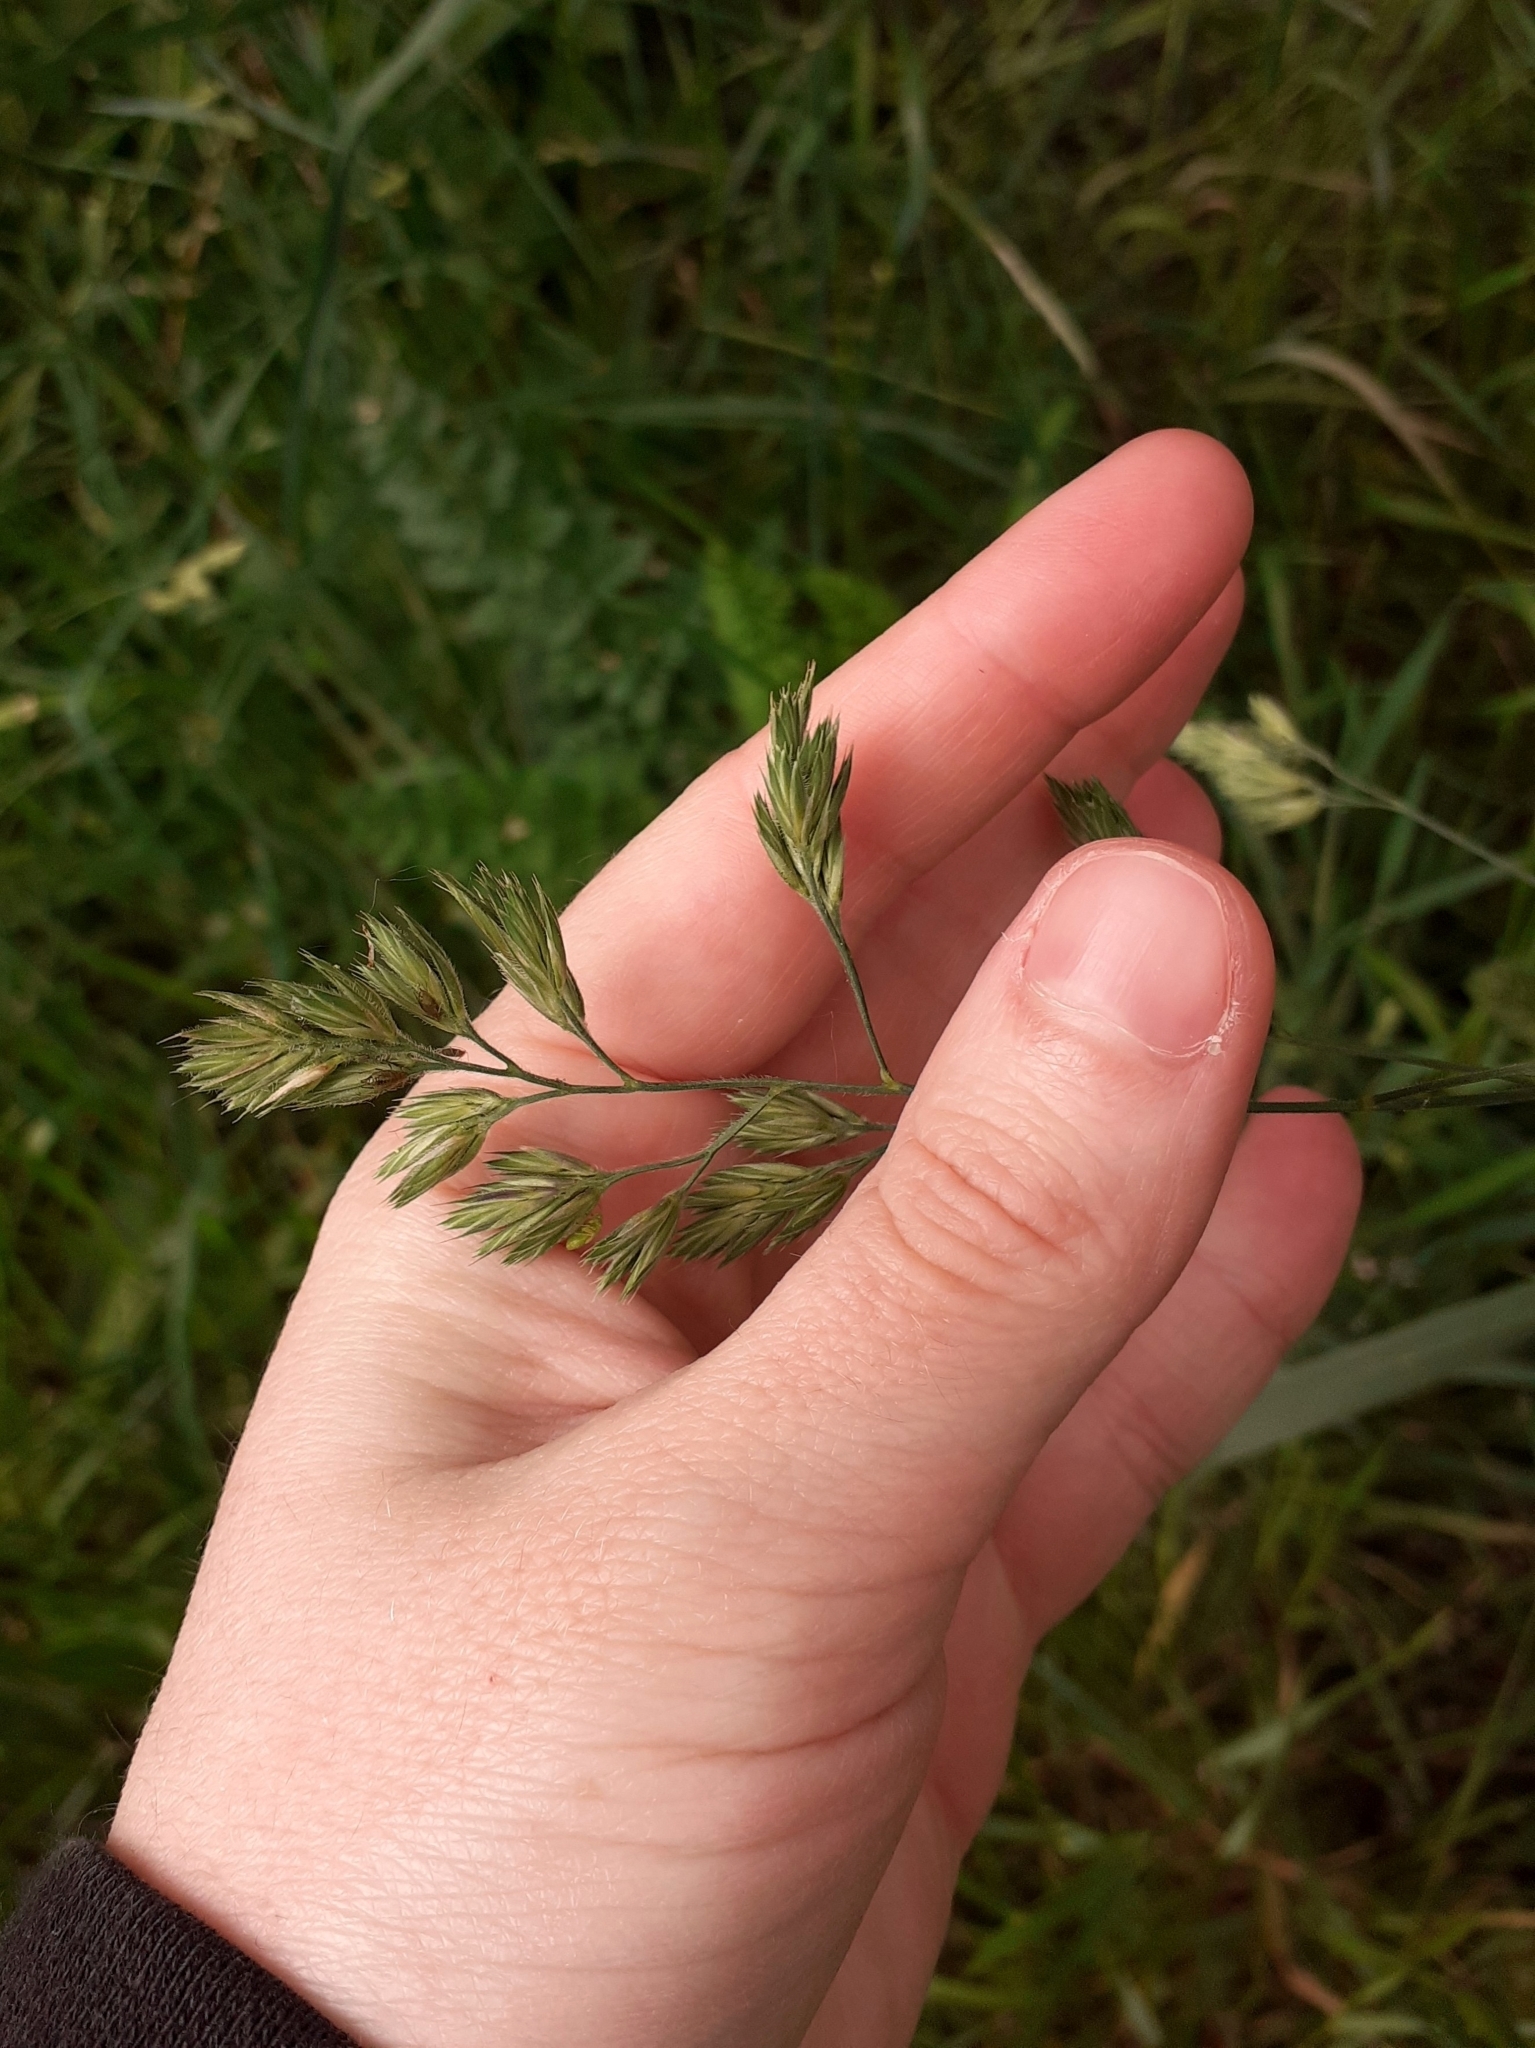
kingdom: Plantae
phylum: Tracheophyta
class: Liliopsida
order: Poales
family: Poaceae
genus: Dactylis
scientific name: Dactylis glomerata
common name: Orchardgrass
